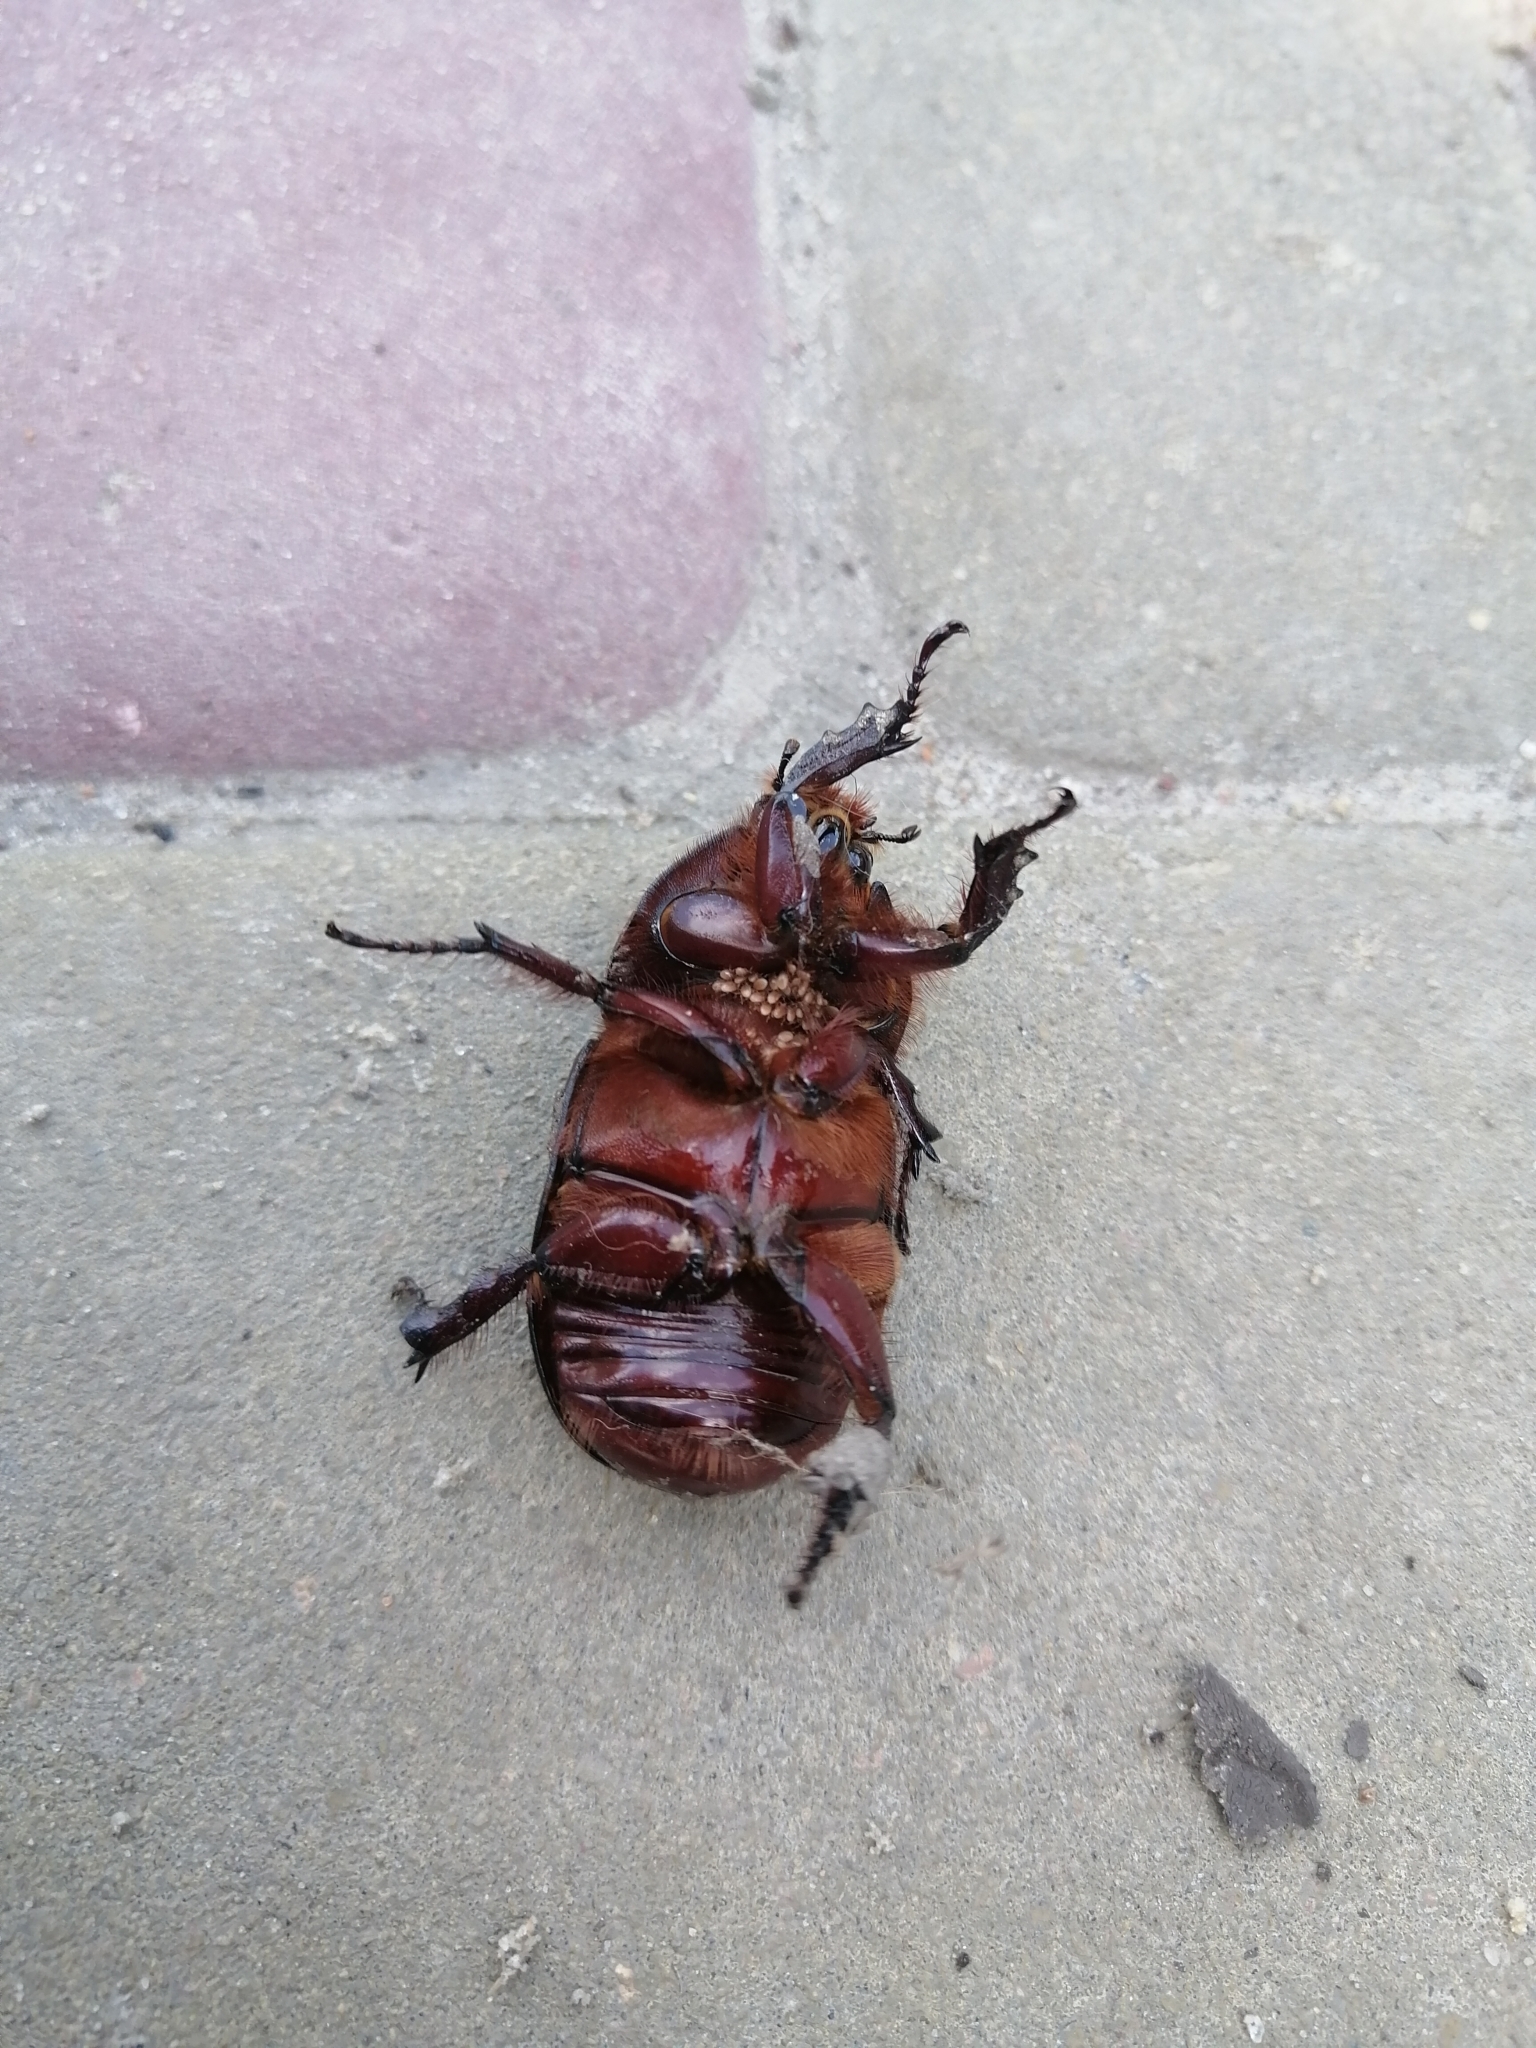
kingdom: Animalia
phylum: Arthropoda
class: Insecta
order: Coleoptera
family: Scarabaeidae
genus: Oryctes
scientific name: Oryctes nasicornis
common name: European rhinoceros beetle
